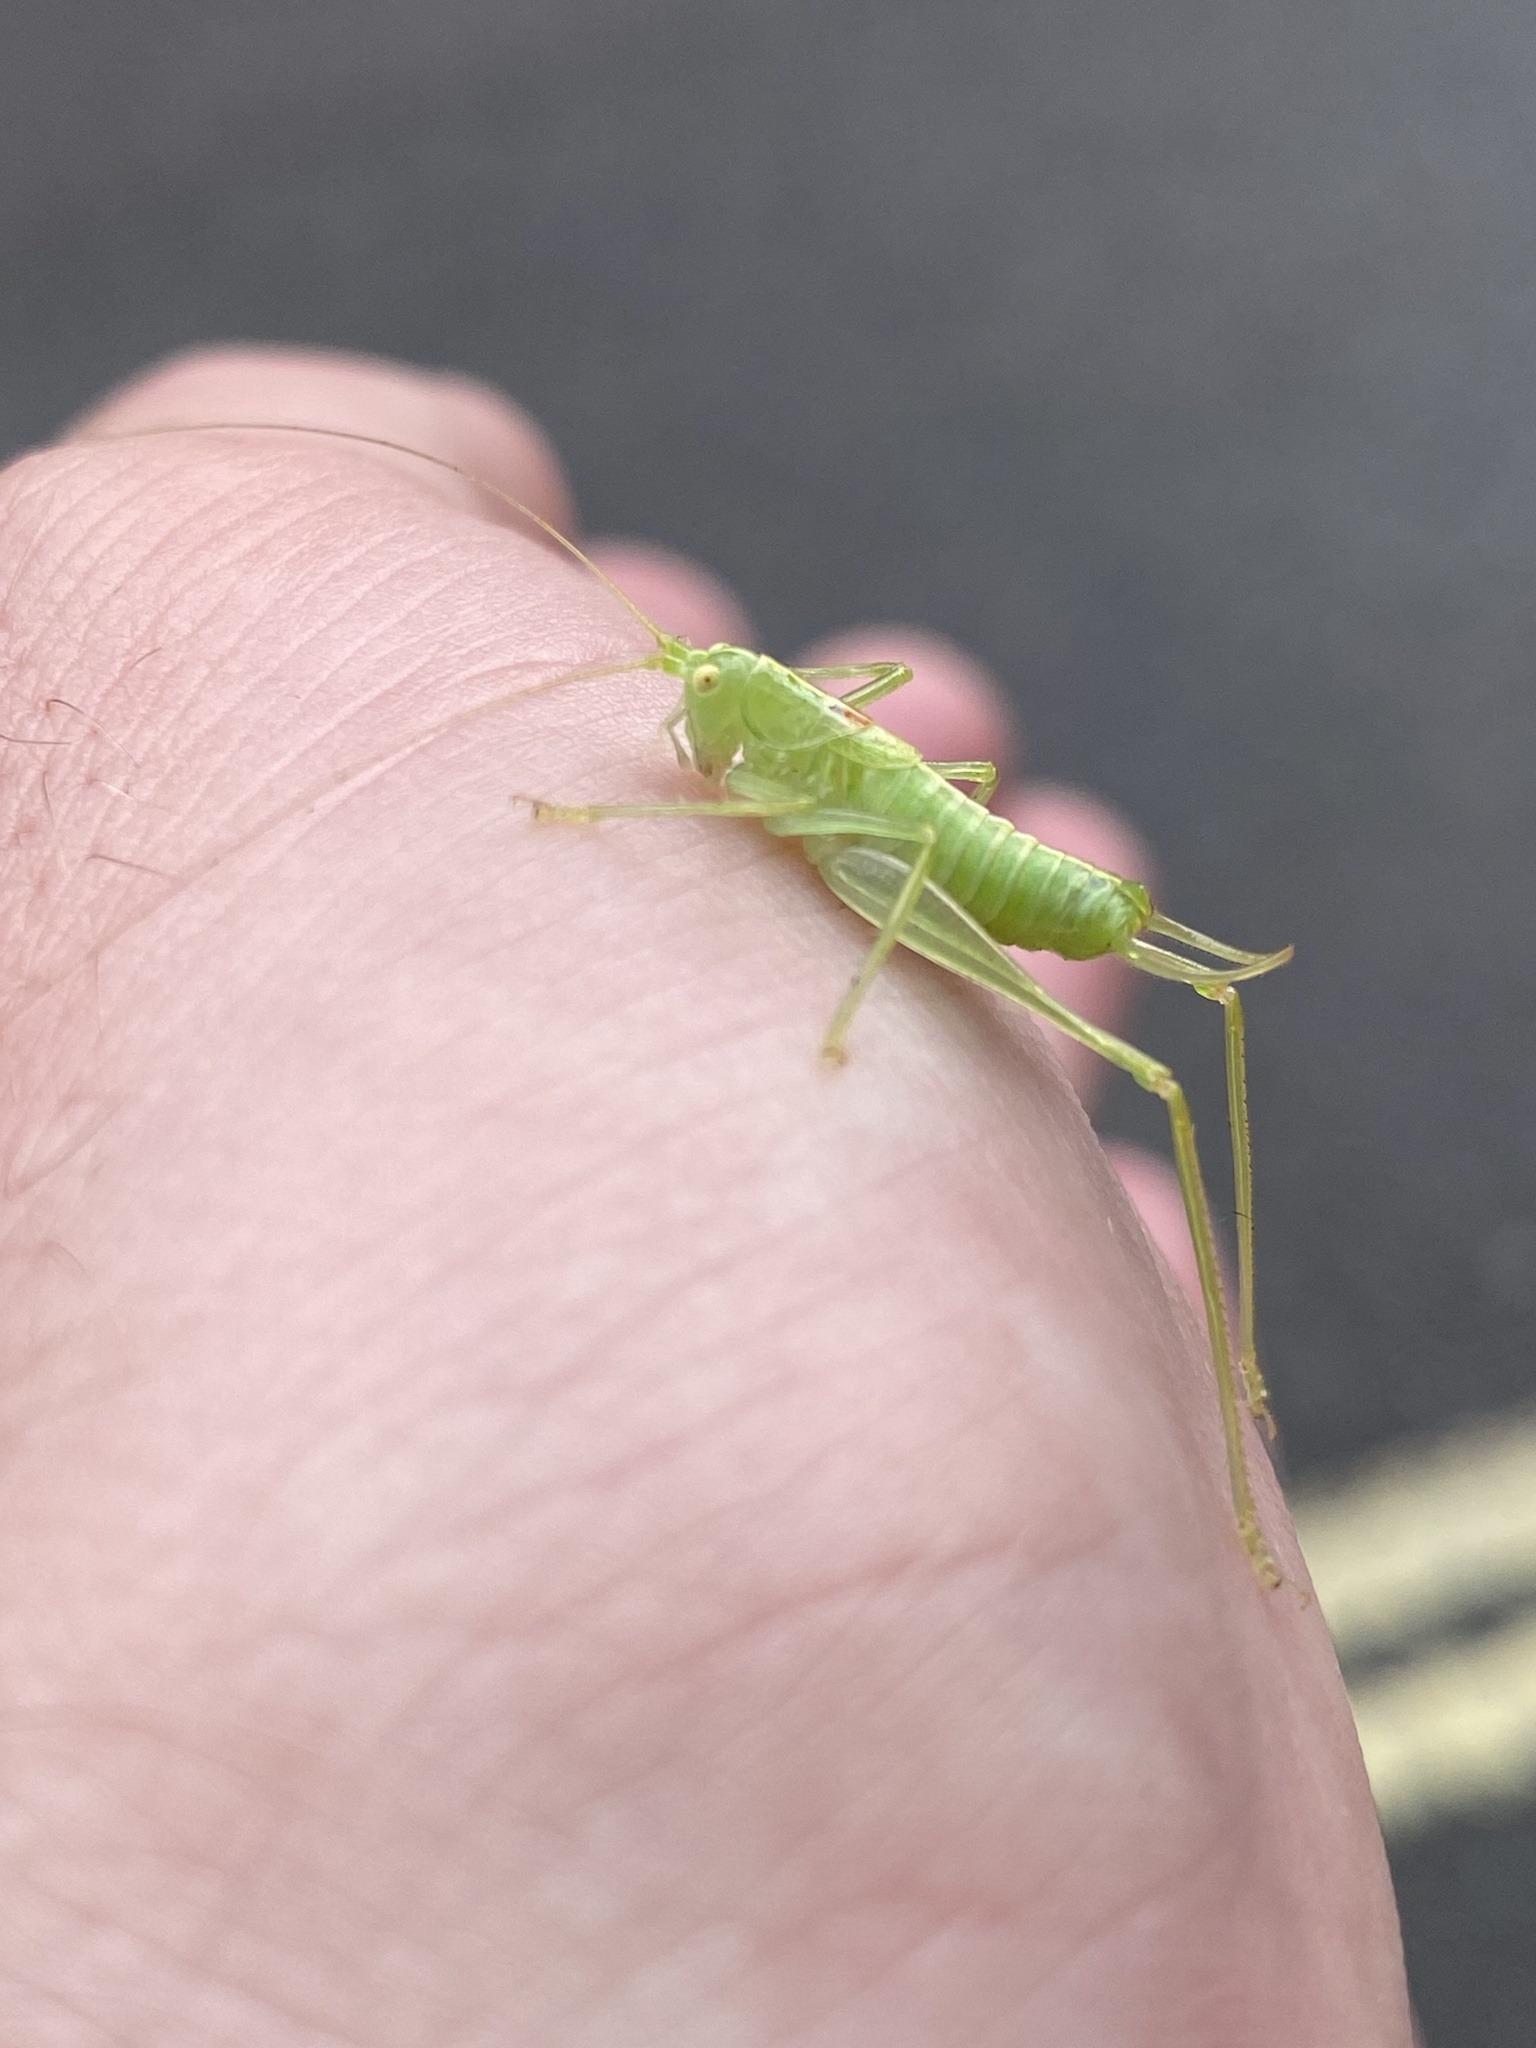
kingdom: Animalia
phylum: Arthropoda
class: Insecta
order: Orthoptera
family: Tettigoniidae
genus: Meconema
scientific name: Meconema meridionale
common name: Southern oak bush-cricket
